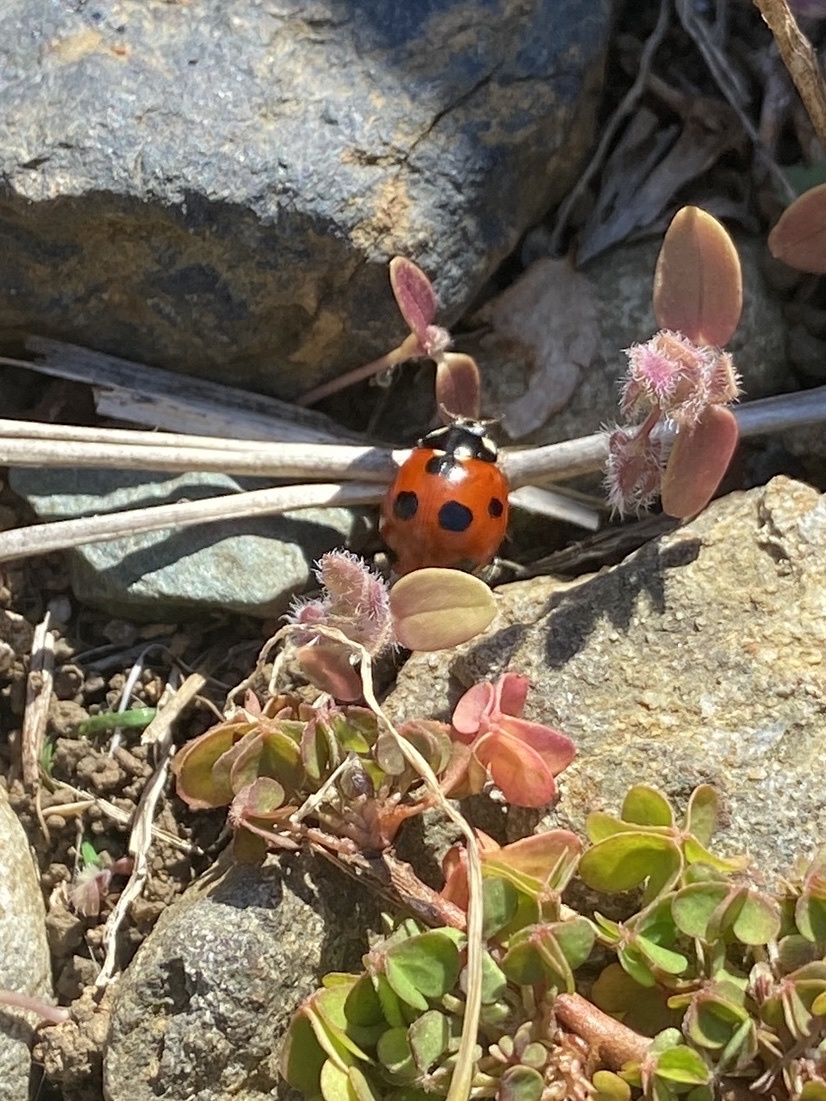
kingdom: Animalia
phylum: Arthropoda
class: Insecta
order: Coleoptera
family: Coccinellidae
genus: Coccinella
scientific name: Coccinella septempunctata
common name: Sevenspotted lady beetle
